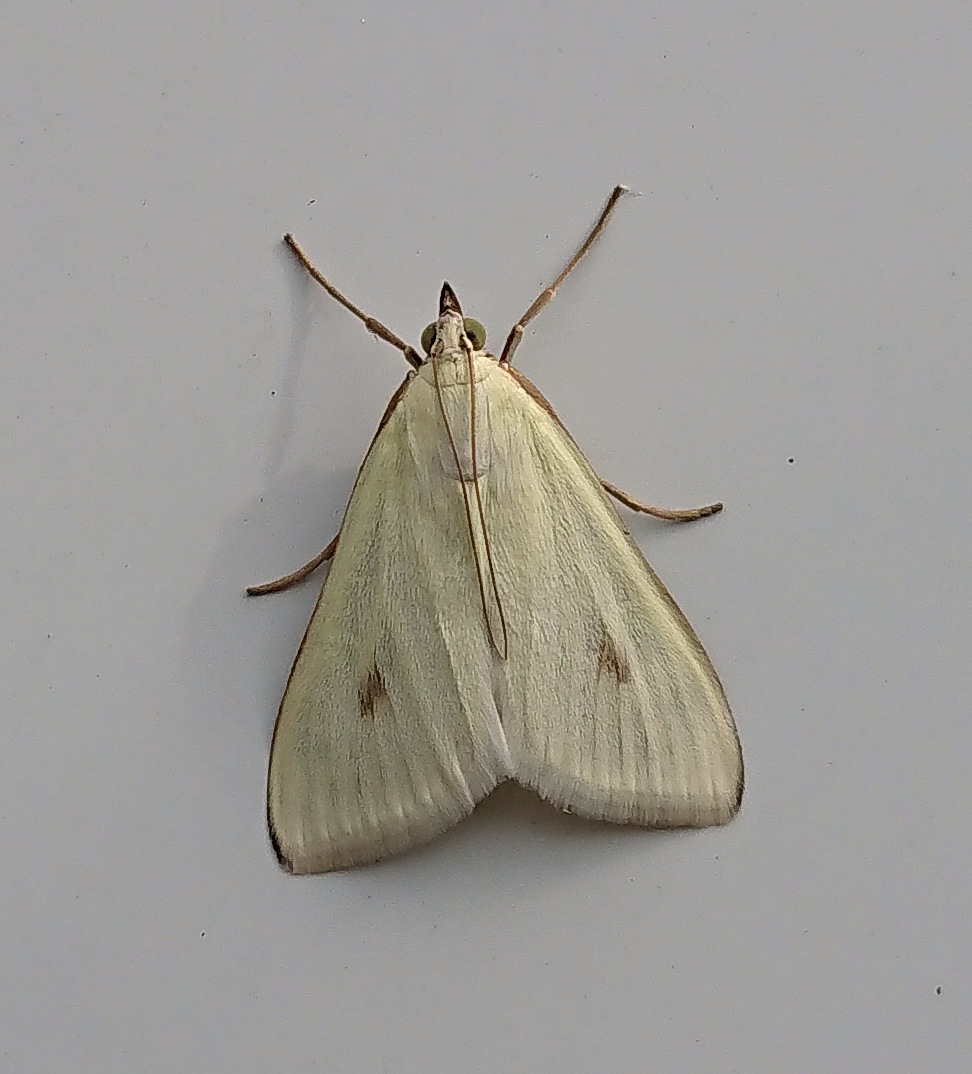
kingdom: Animalia
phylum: Arthropoda
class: Insecta
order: Lepidoptera
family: Crambidae
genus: Sitochroa
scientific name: Sitochroa palealis
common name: Greenish-yellow sitochroa moth
